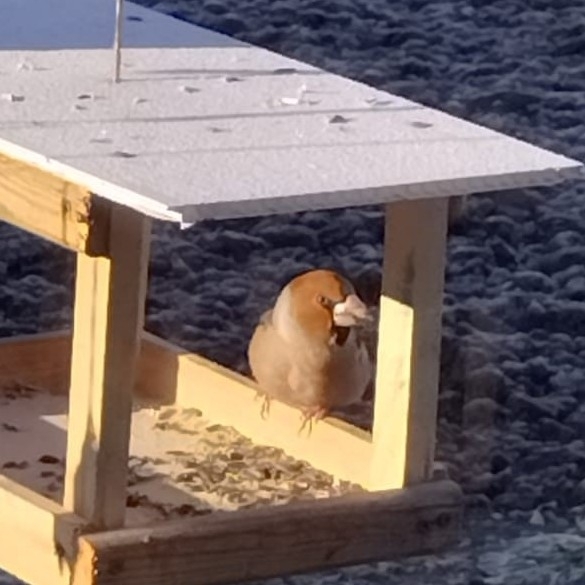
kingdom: Animalia
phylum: Chordata
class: Aves
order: Passeriformes
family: Fringillidae
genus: Coccothraustes
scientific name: Coccothraustes coccothraustes
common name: Hawfinch
